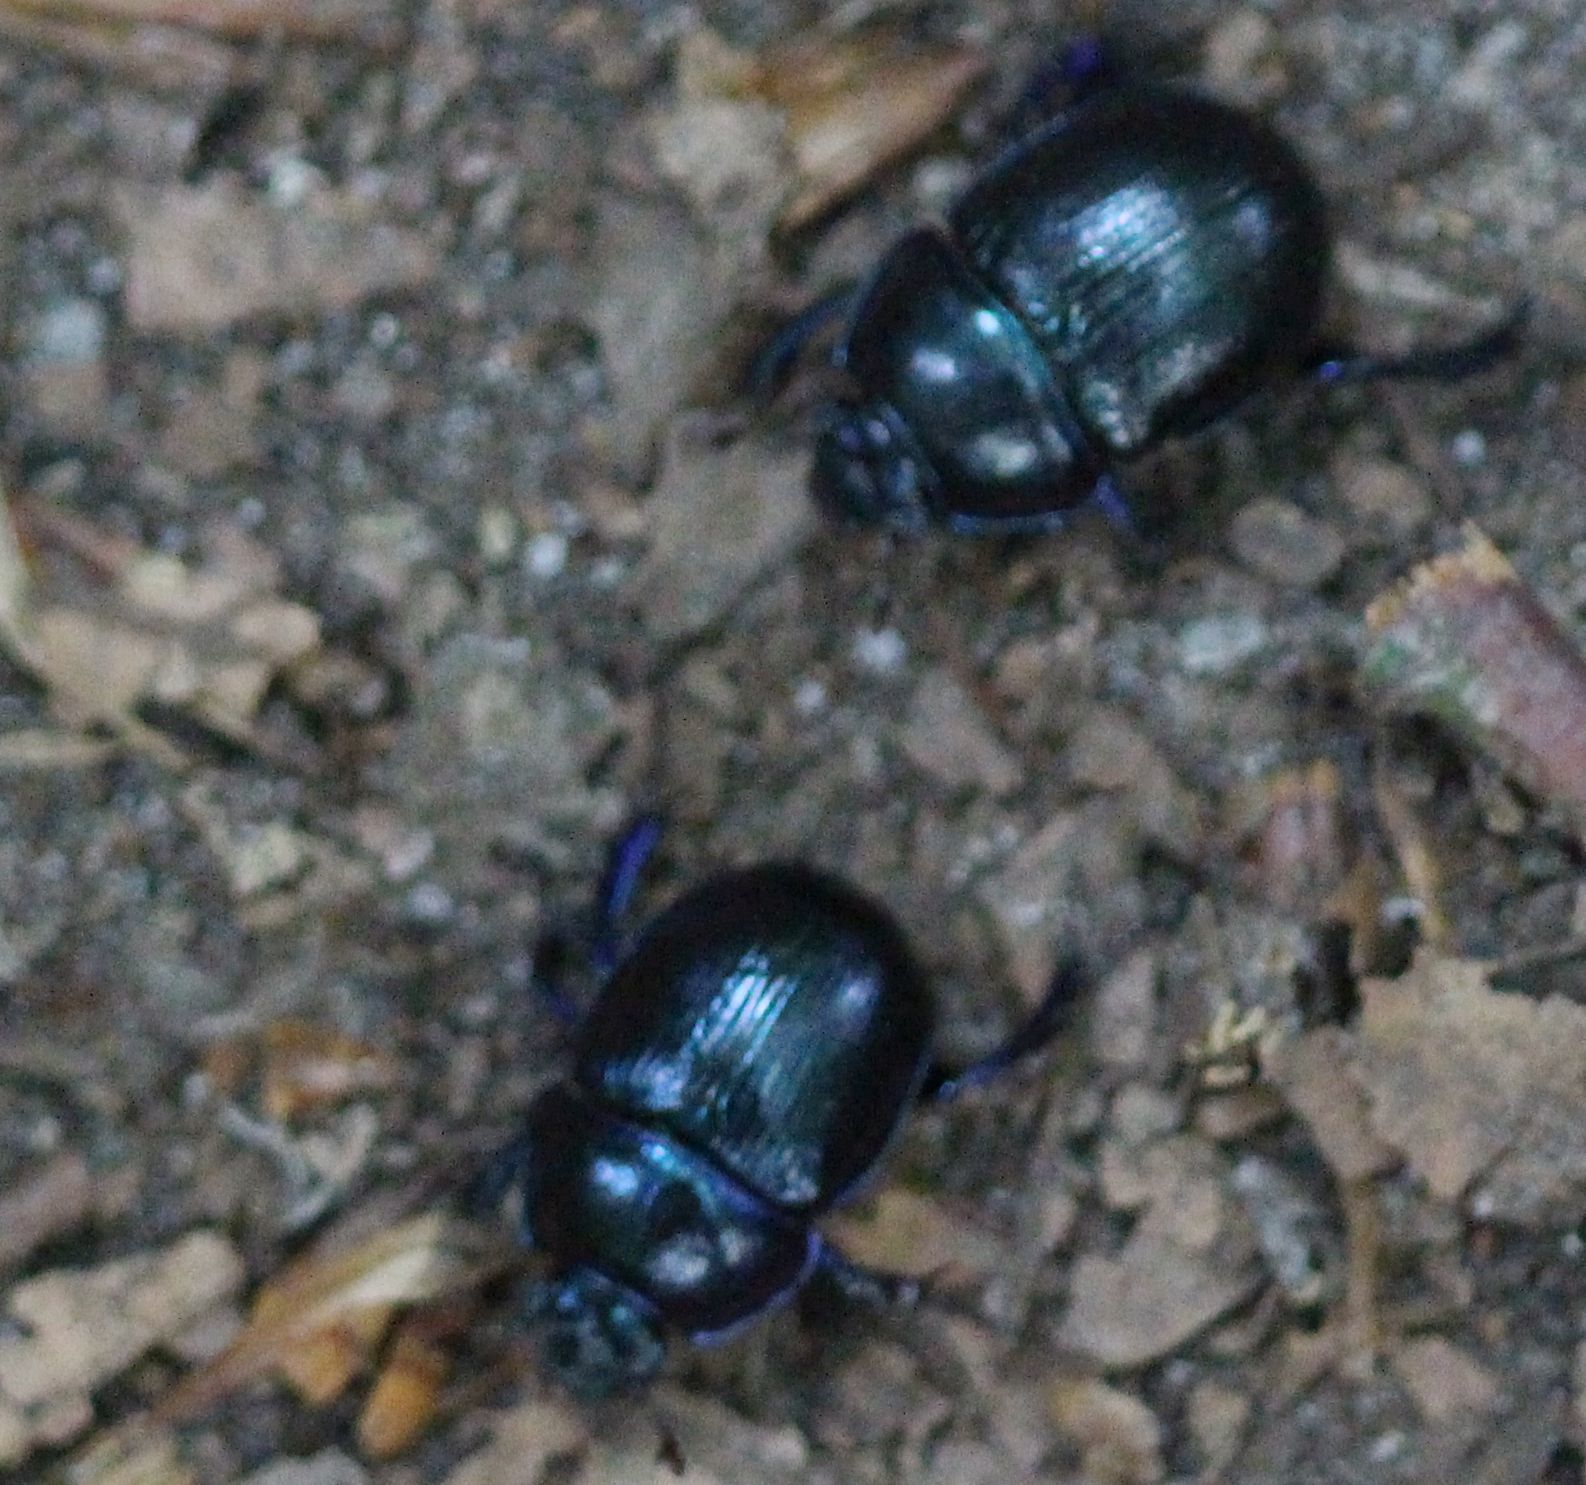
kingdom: Animalia
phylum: Arthropoda
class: Insecta
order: Coleoptera
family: Geotrupidae
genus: Anoplotrupes
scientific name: Anoplotrupes stercorosus
